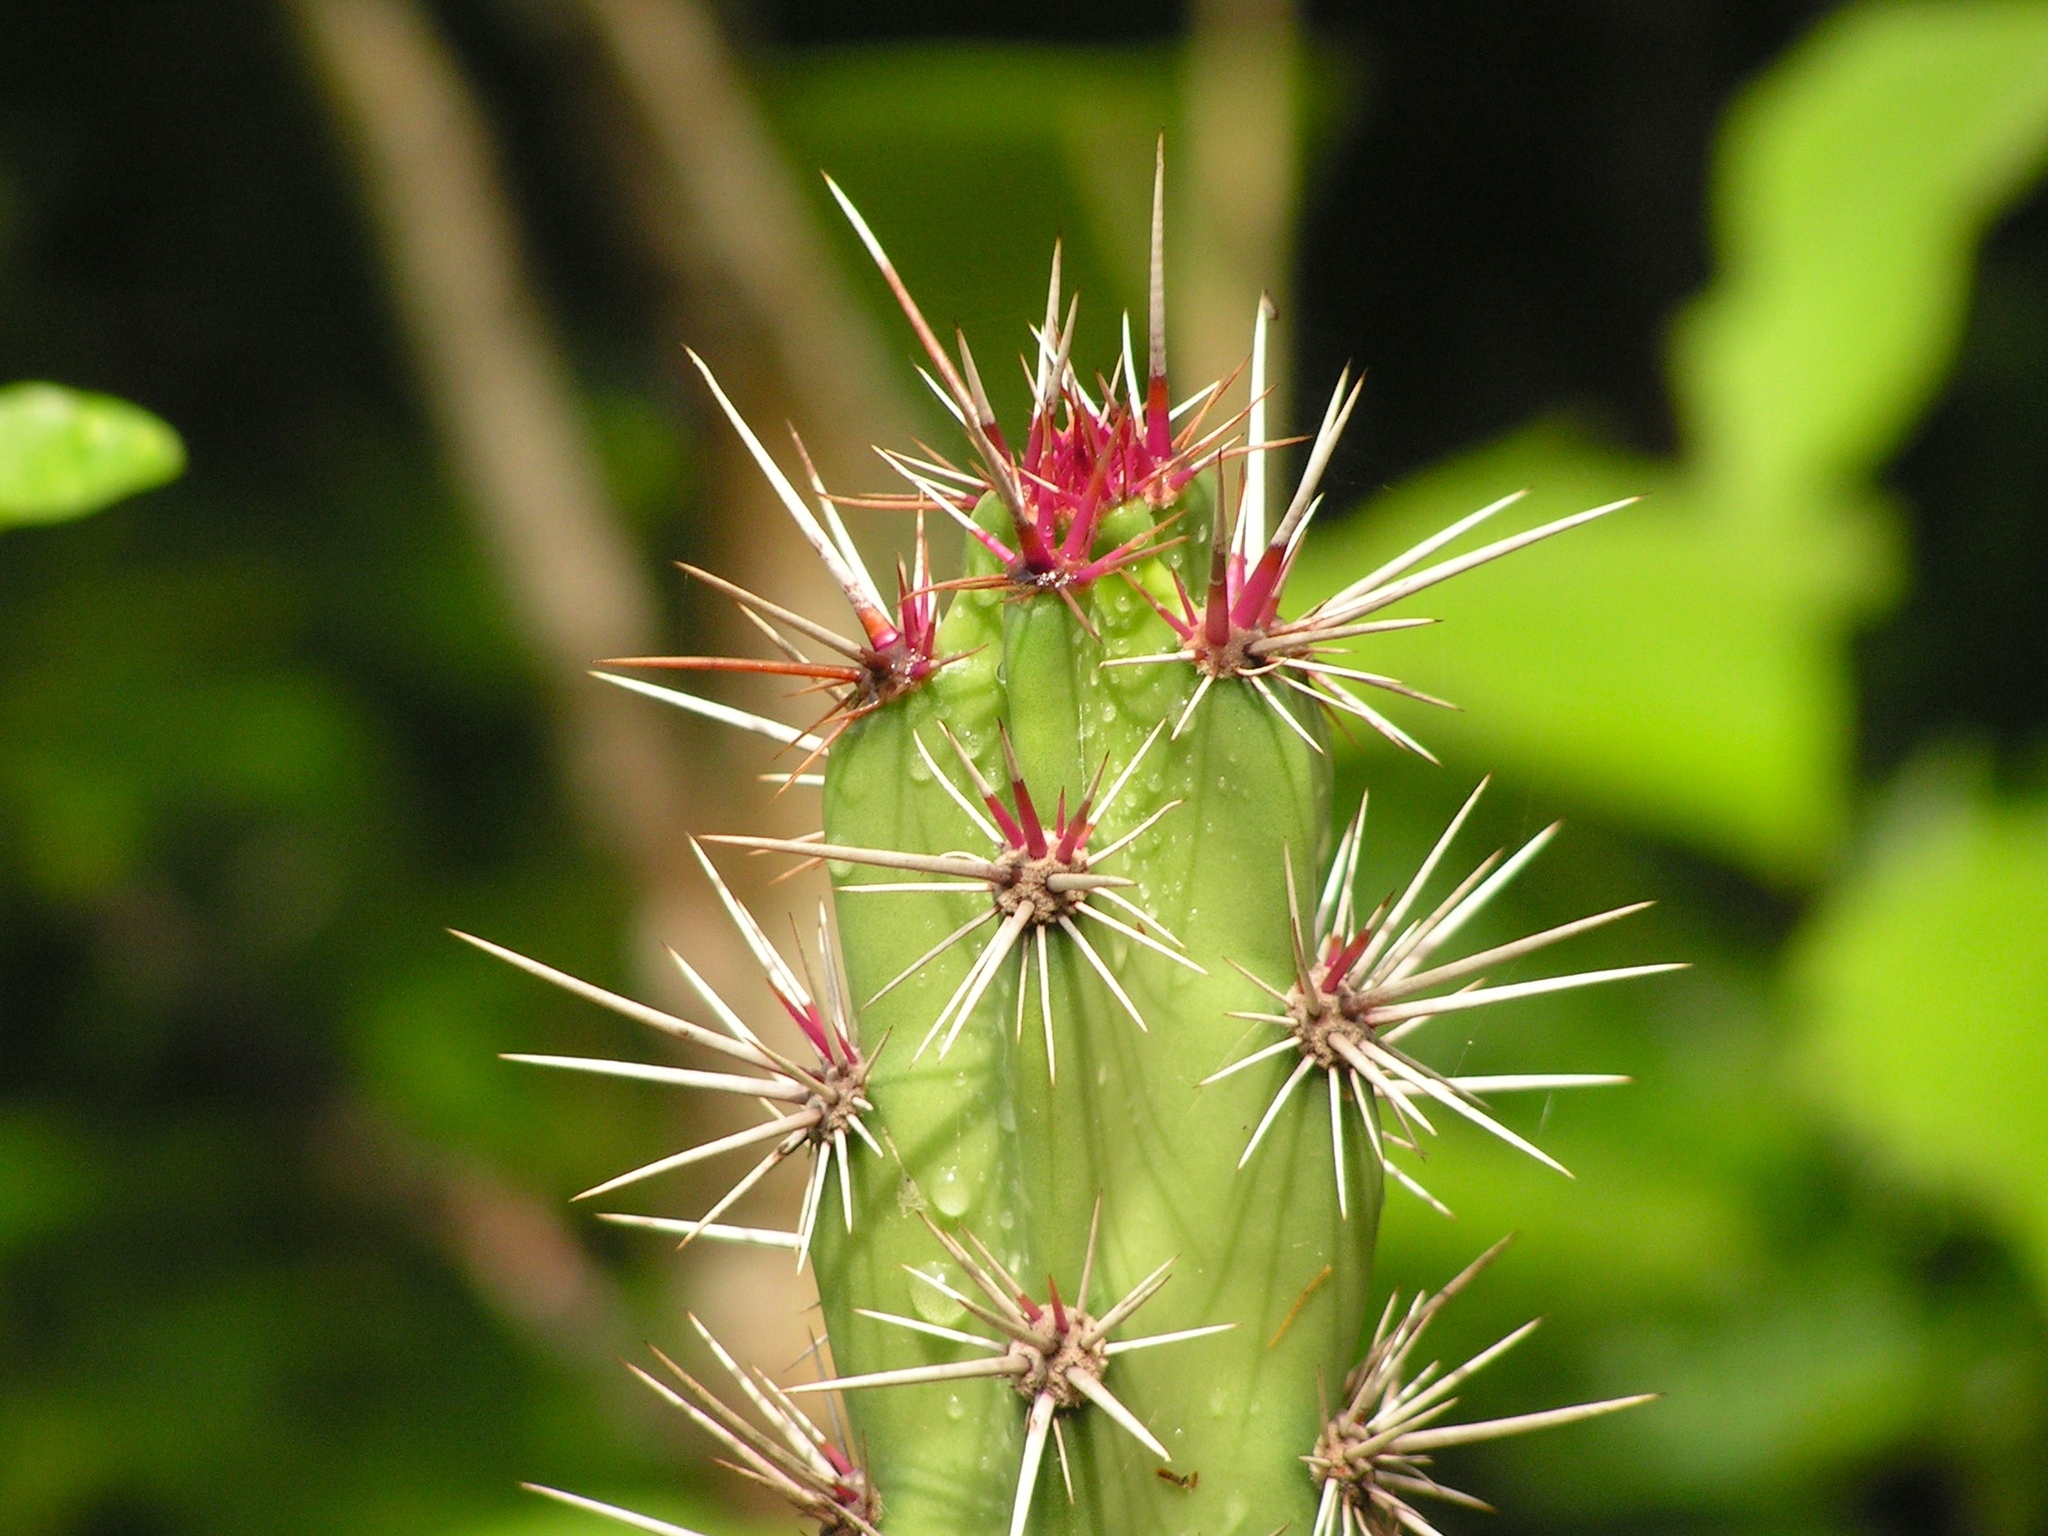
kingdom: Plantae
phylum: Tracheophyta
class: Magnoliopsida
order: Caryophyllales
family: Cactaceae
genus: Stenocereus
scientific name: Stenocereus kerberi
